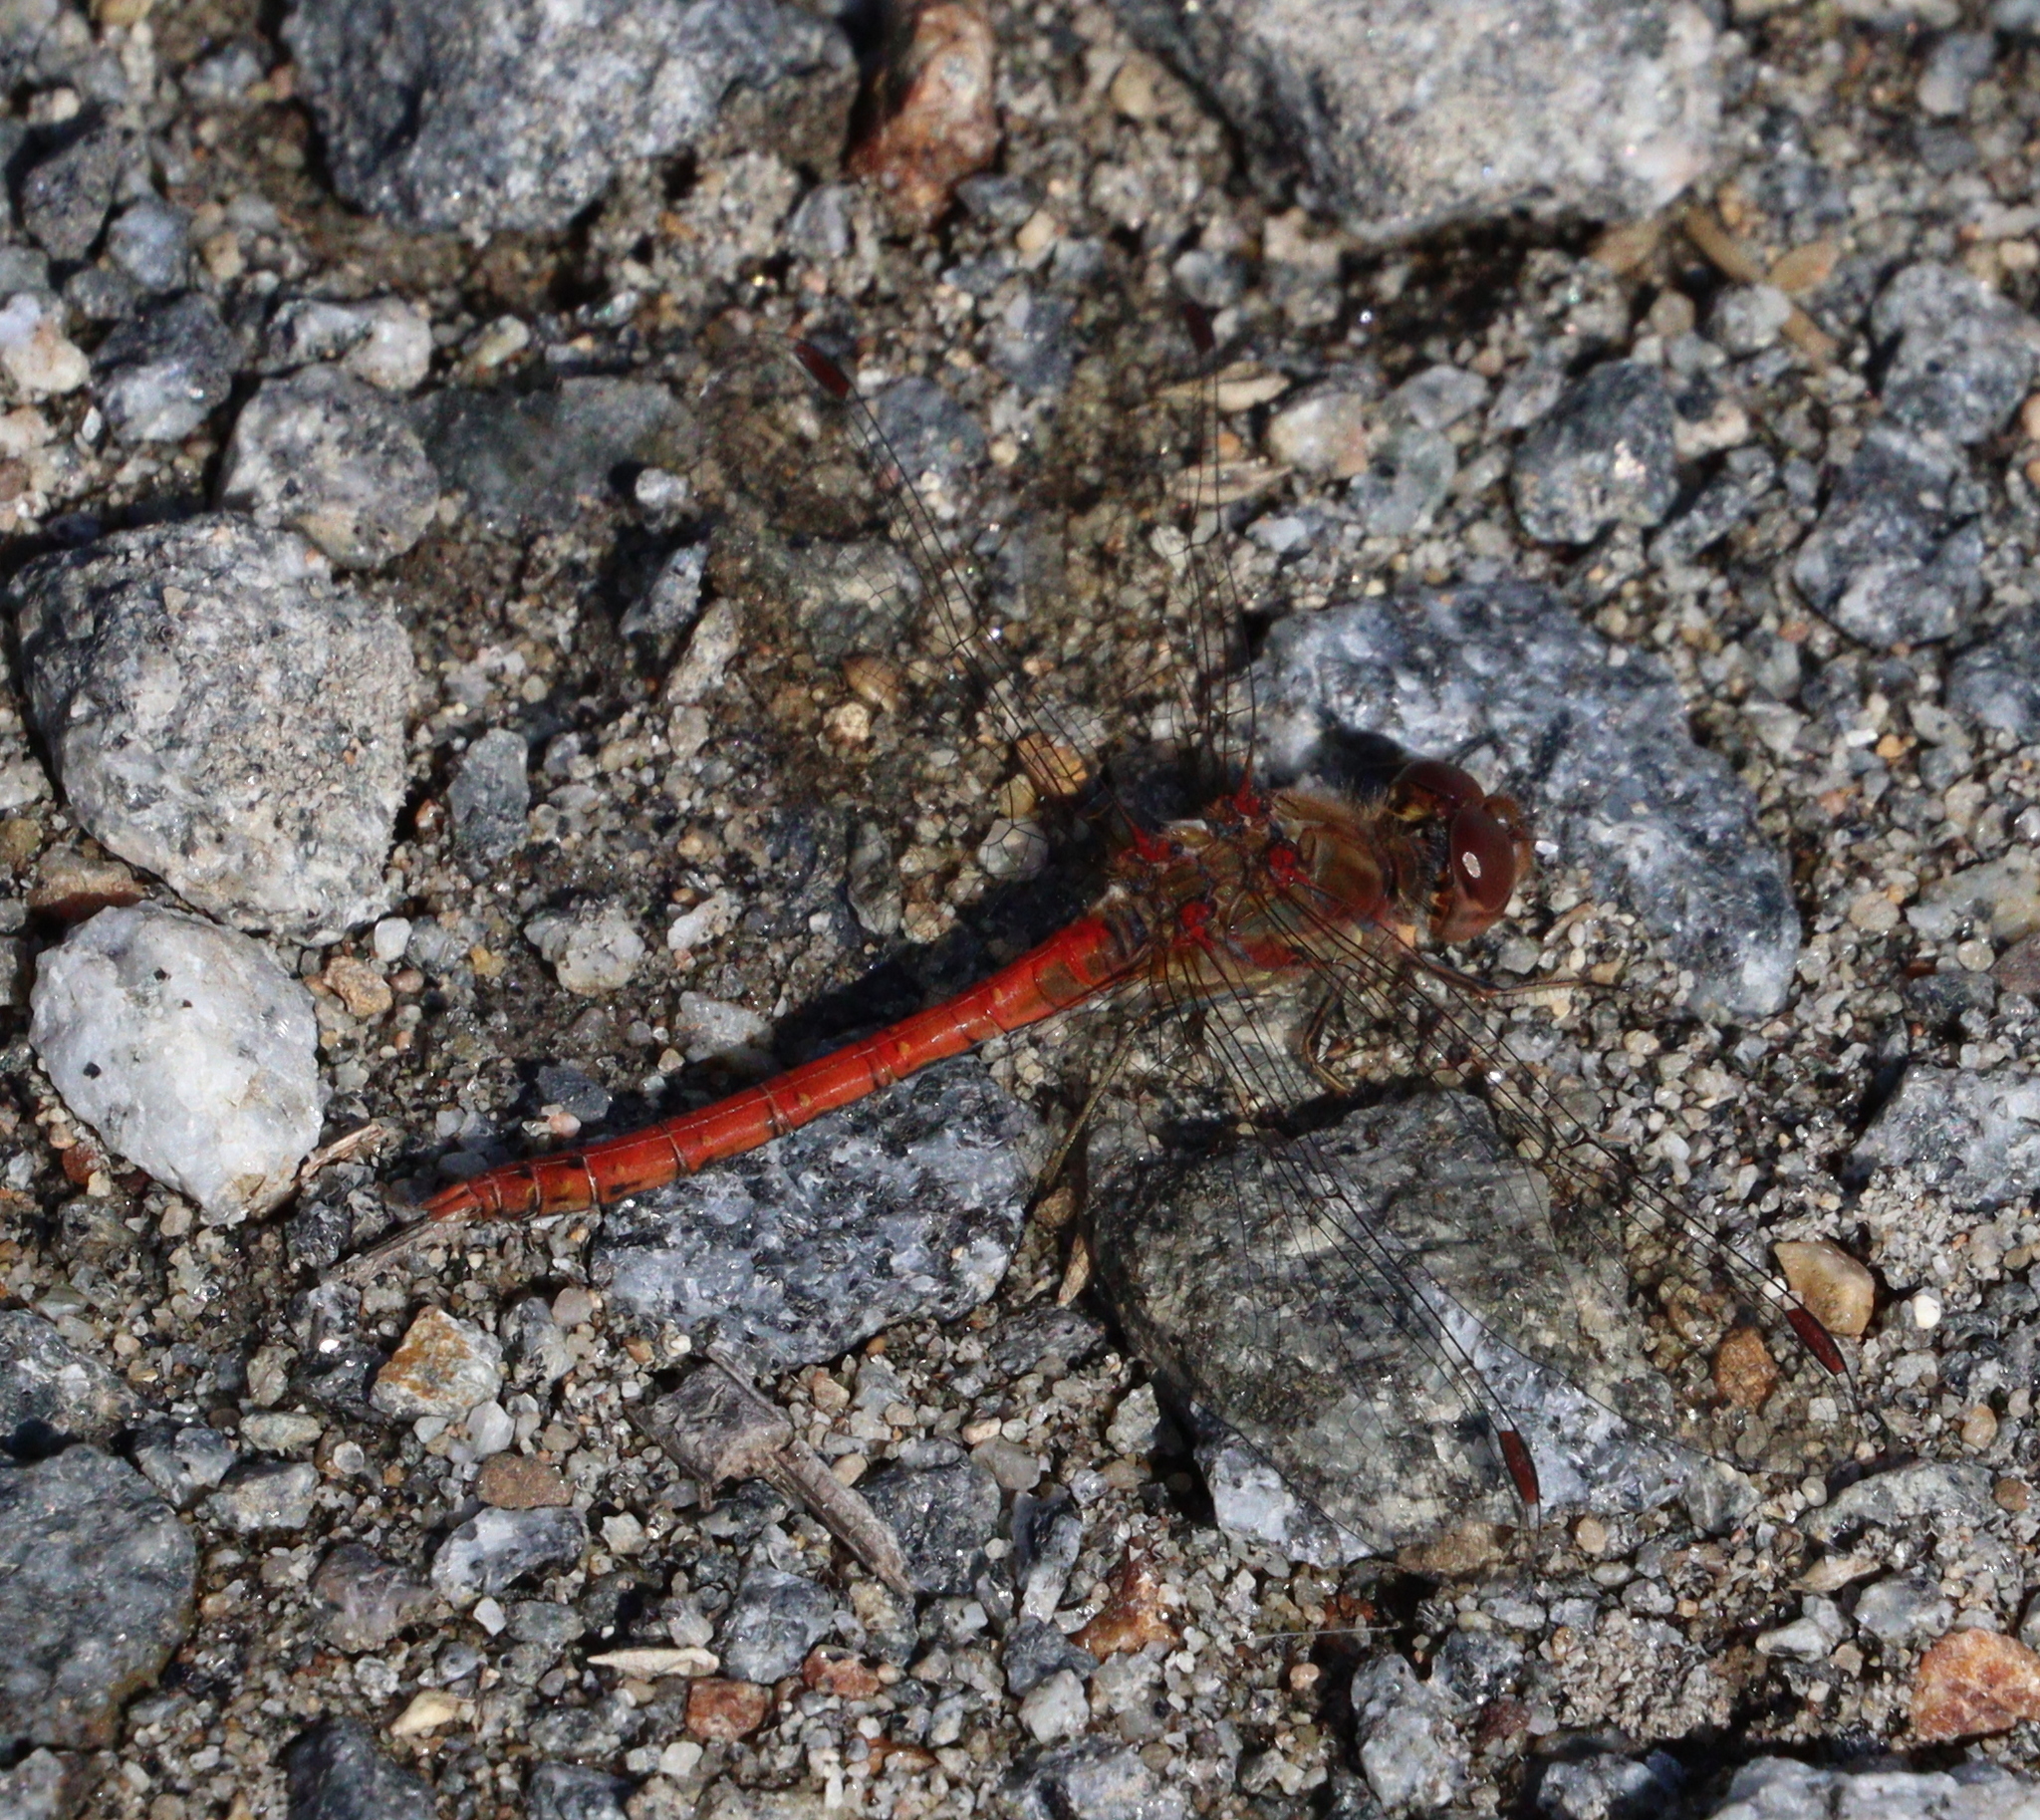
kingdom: Animalia
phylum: Arthropoda
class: Insecta
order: Odonata
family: Libellulidae
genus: Sympetrum
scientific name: Sympetrum striolatum
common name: Common darter
